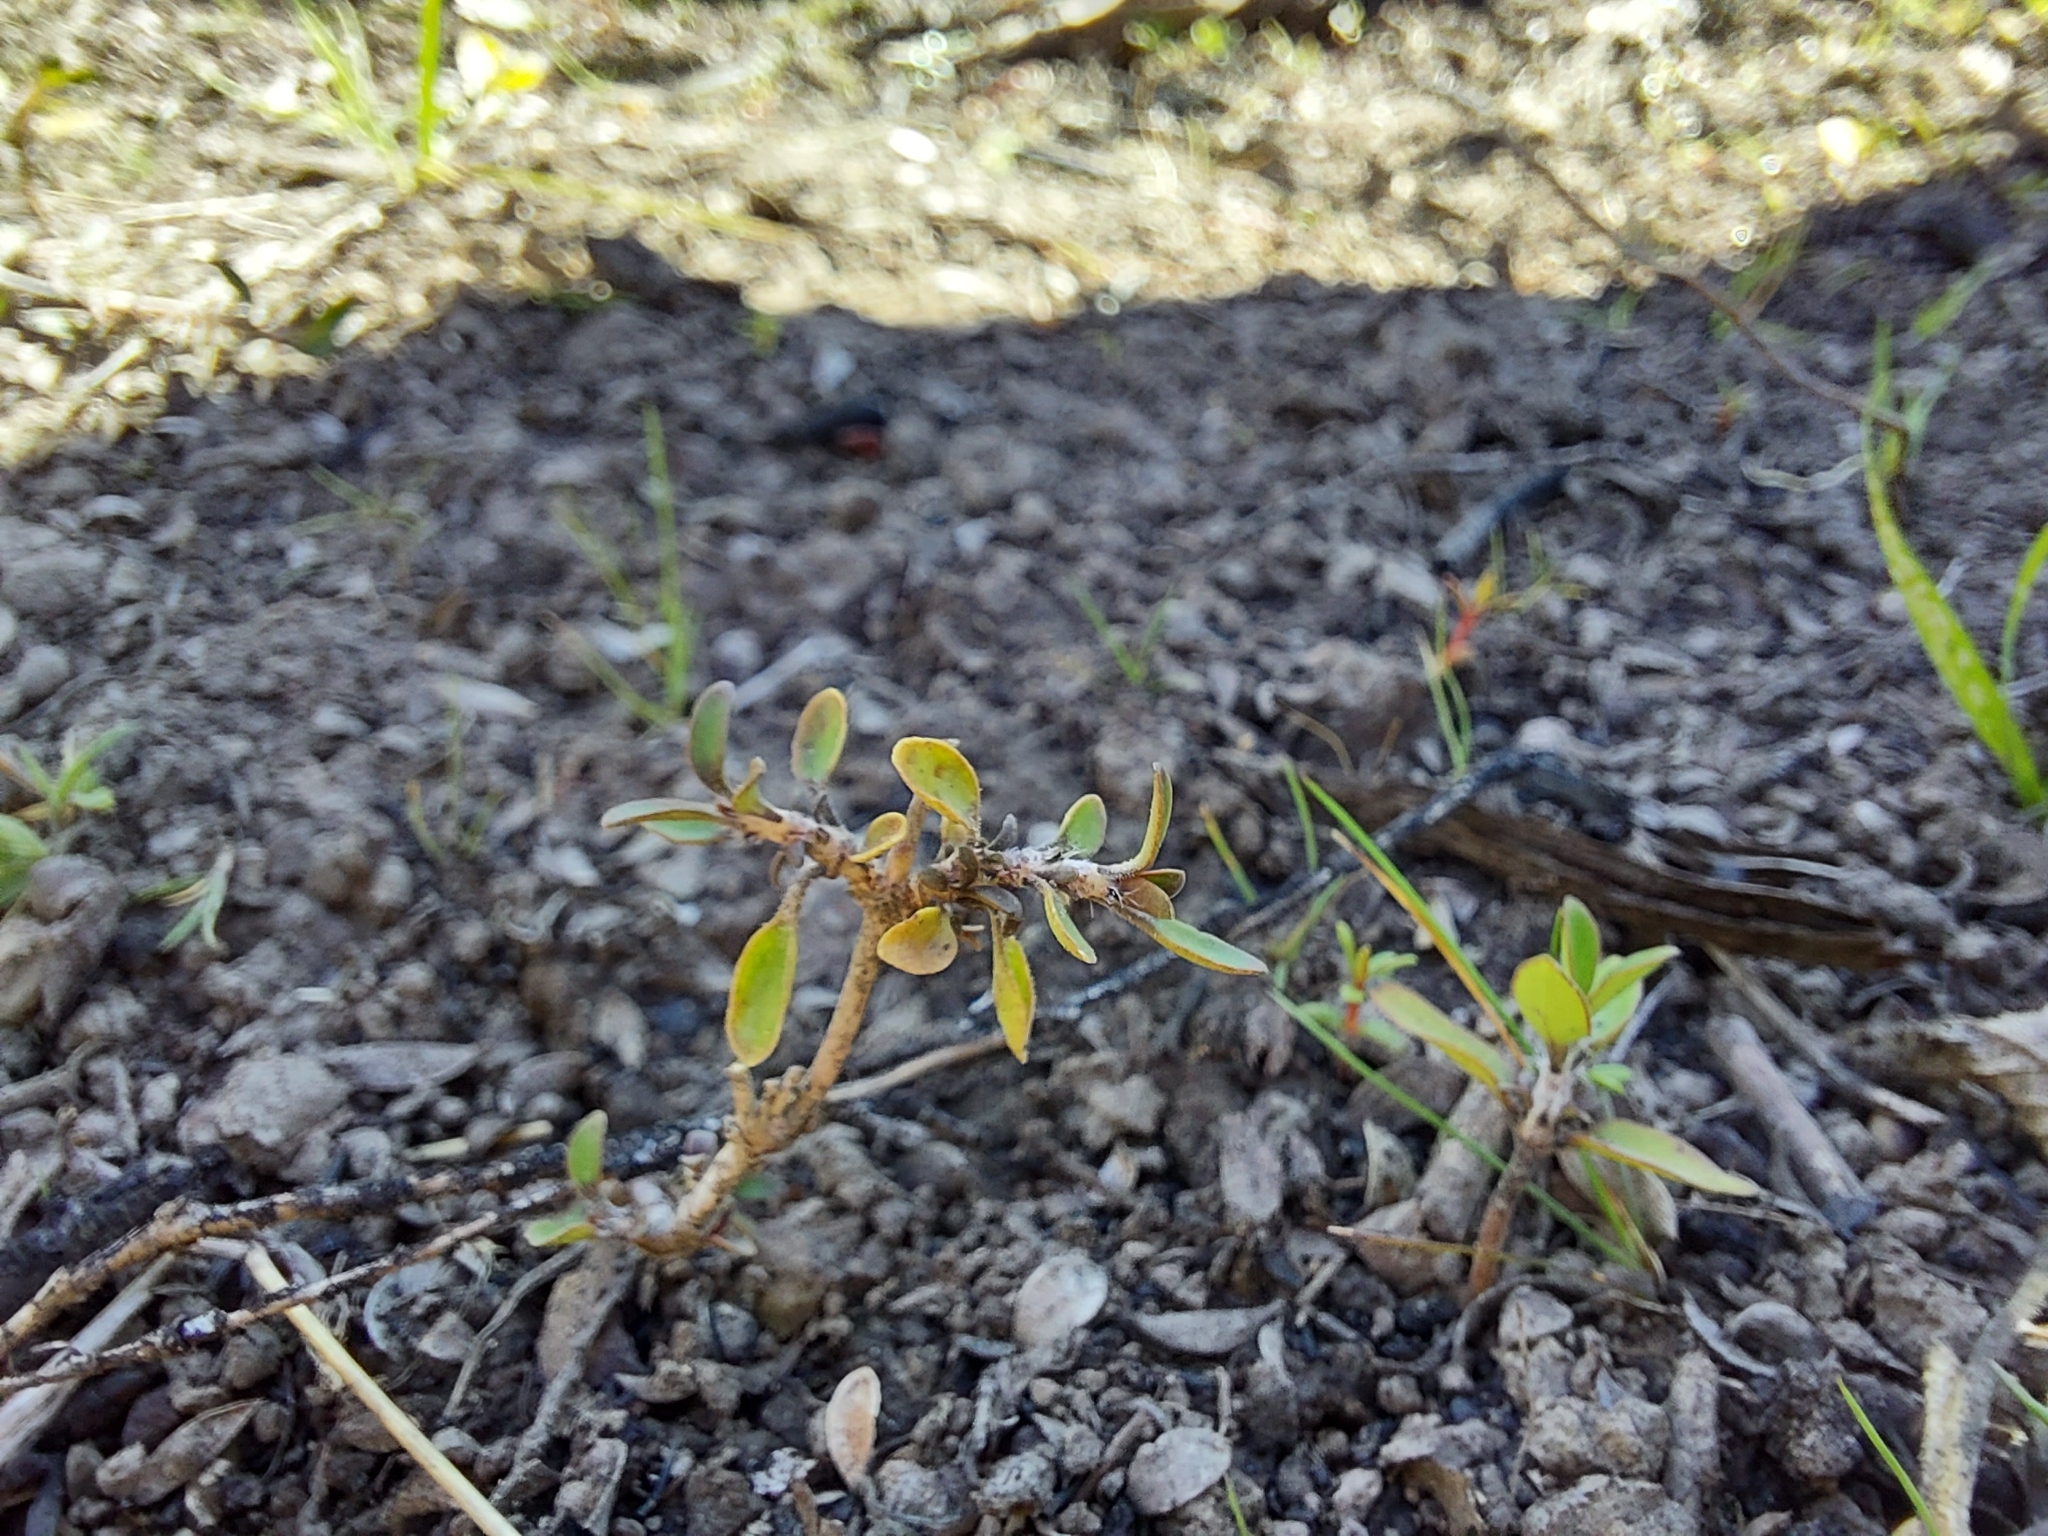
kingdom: Plantae
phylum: Tracheophyta
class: Magnoliopsida
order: Gentianales
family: Rubiaceae
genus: Coprosma
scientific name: Coprosma propinqua
